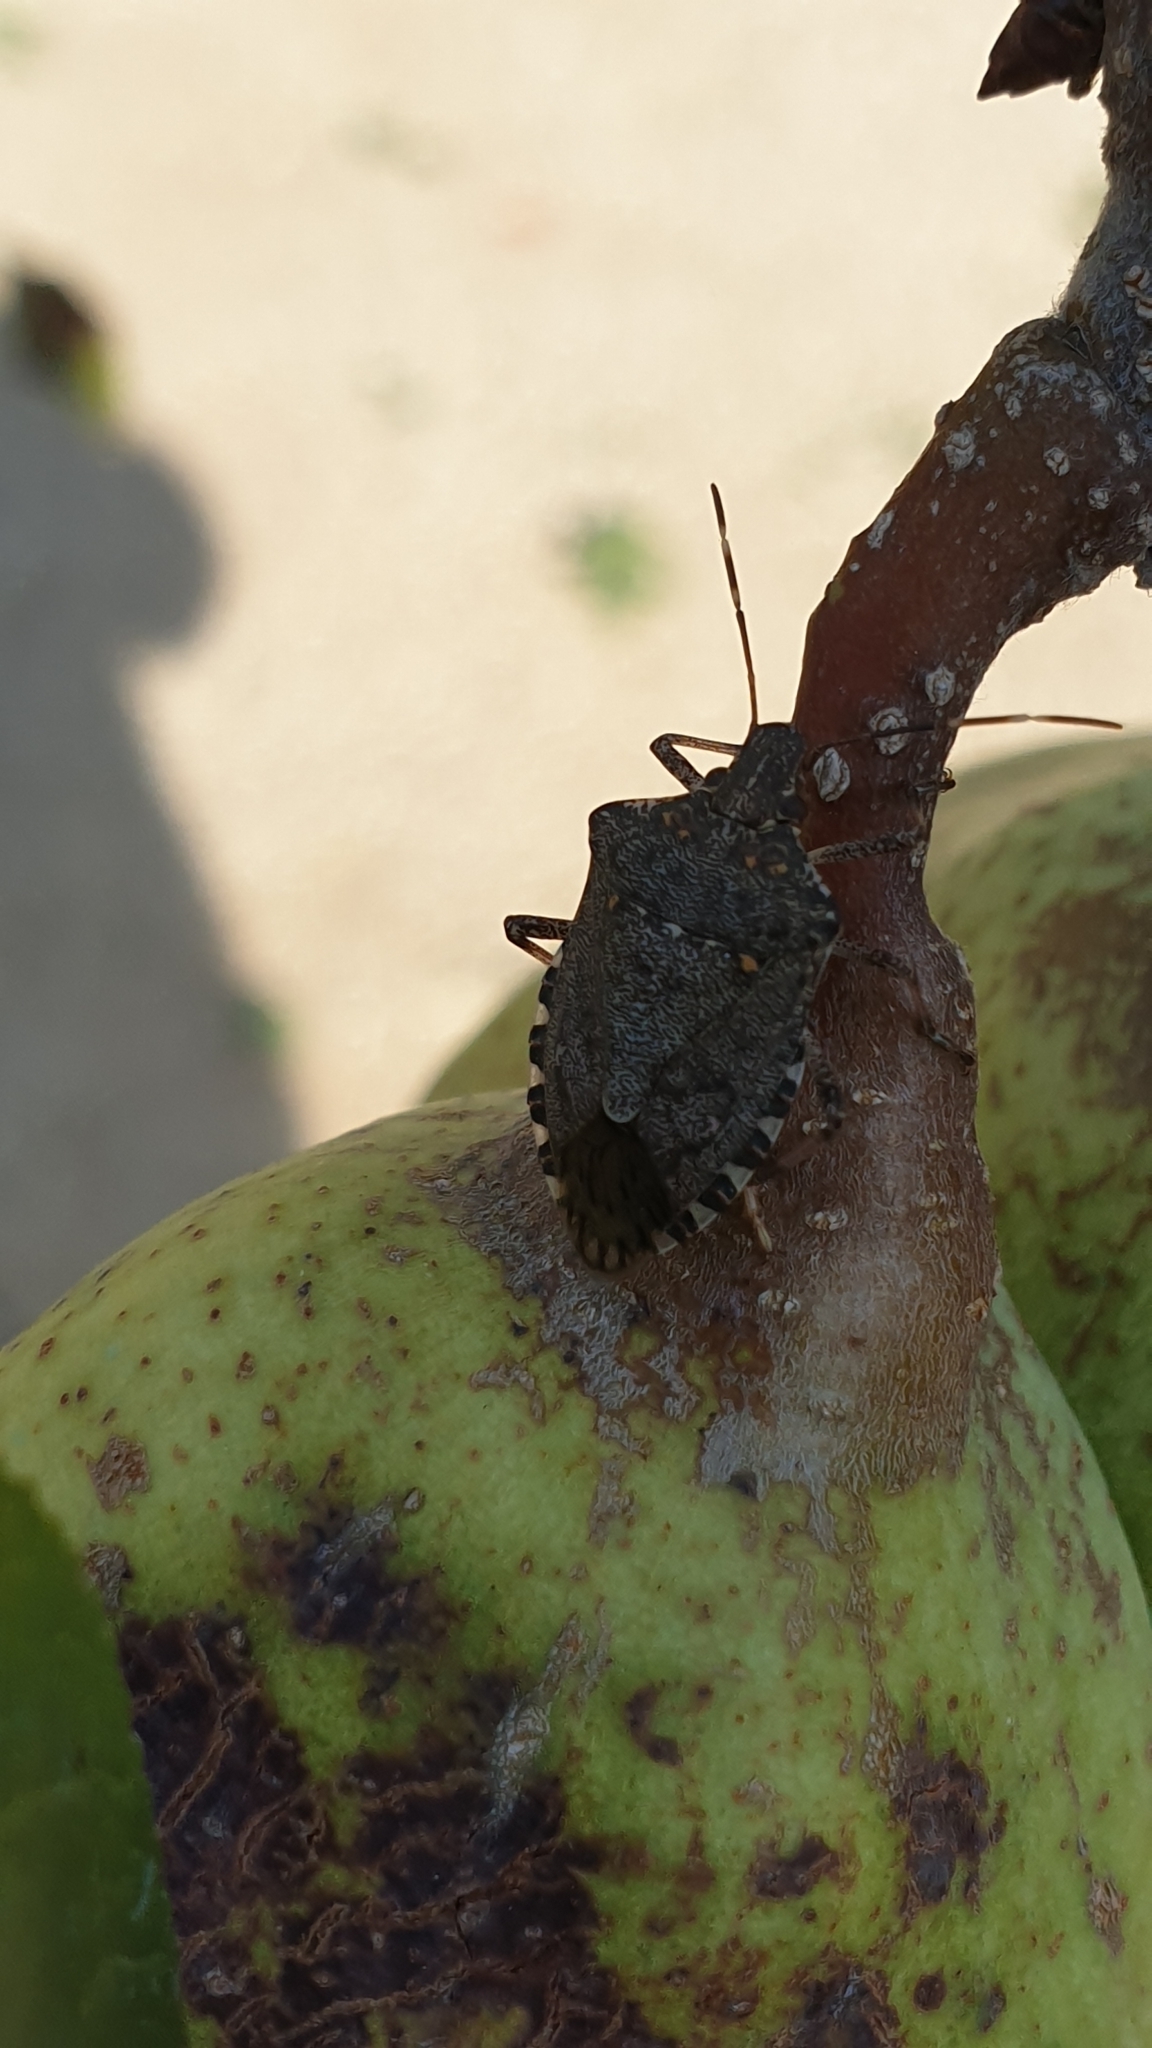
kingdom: Animalia
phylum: Arthropoda
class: Insecta
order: Hemiptera
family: Pentatomidae
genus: Halyomorpha
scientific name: Halyomorpha halys
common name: Brown marmorated stink bug
